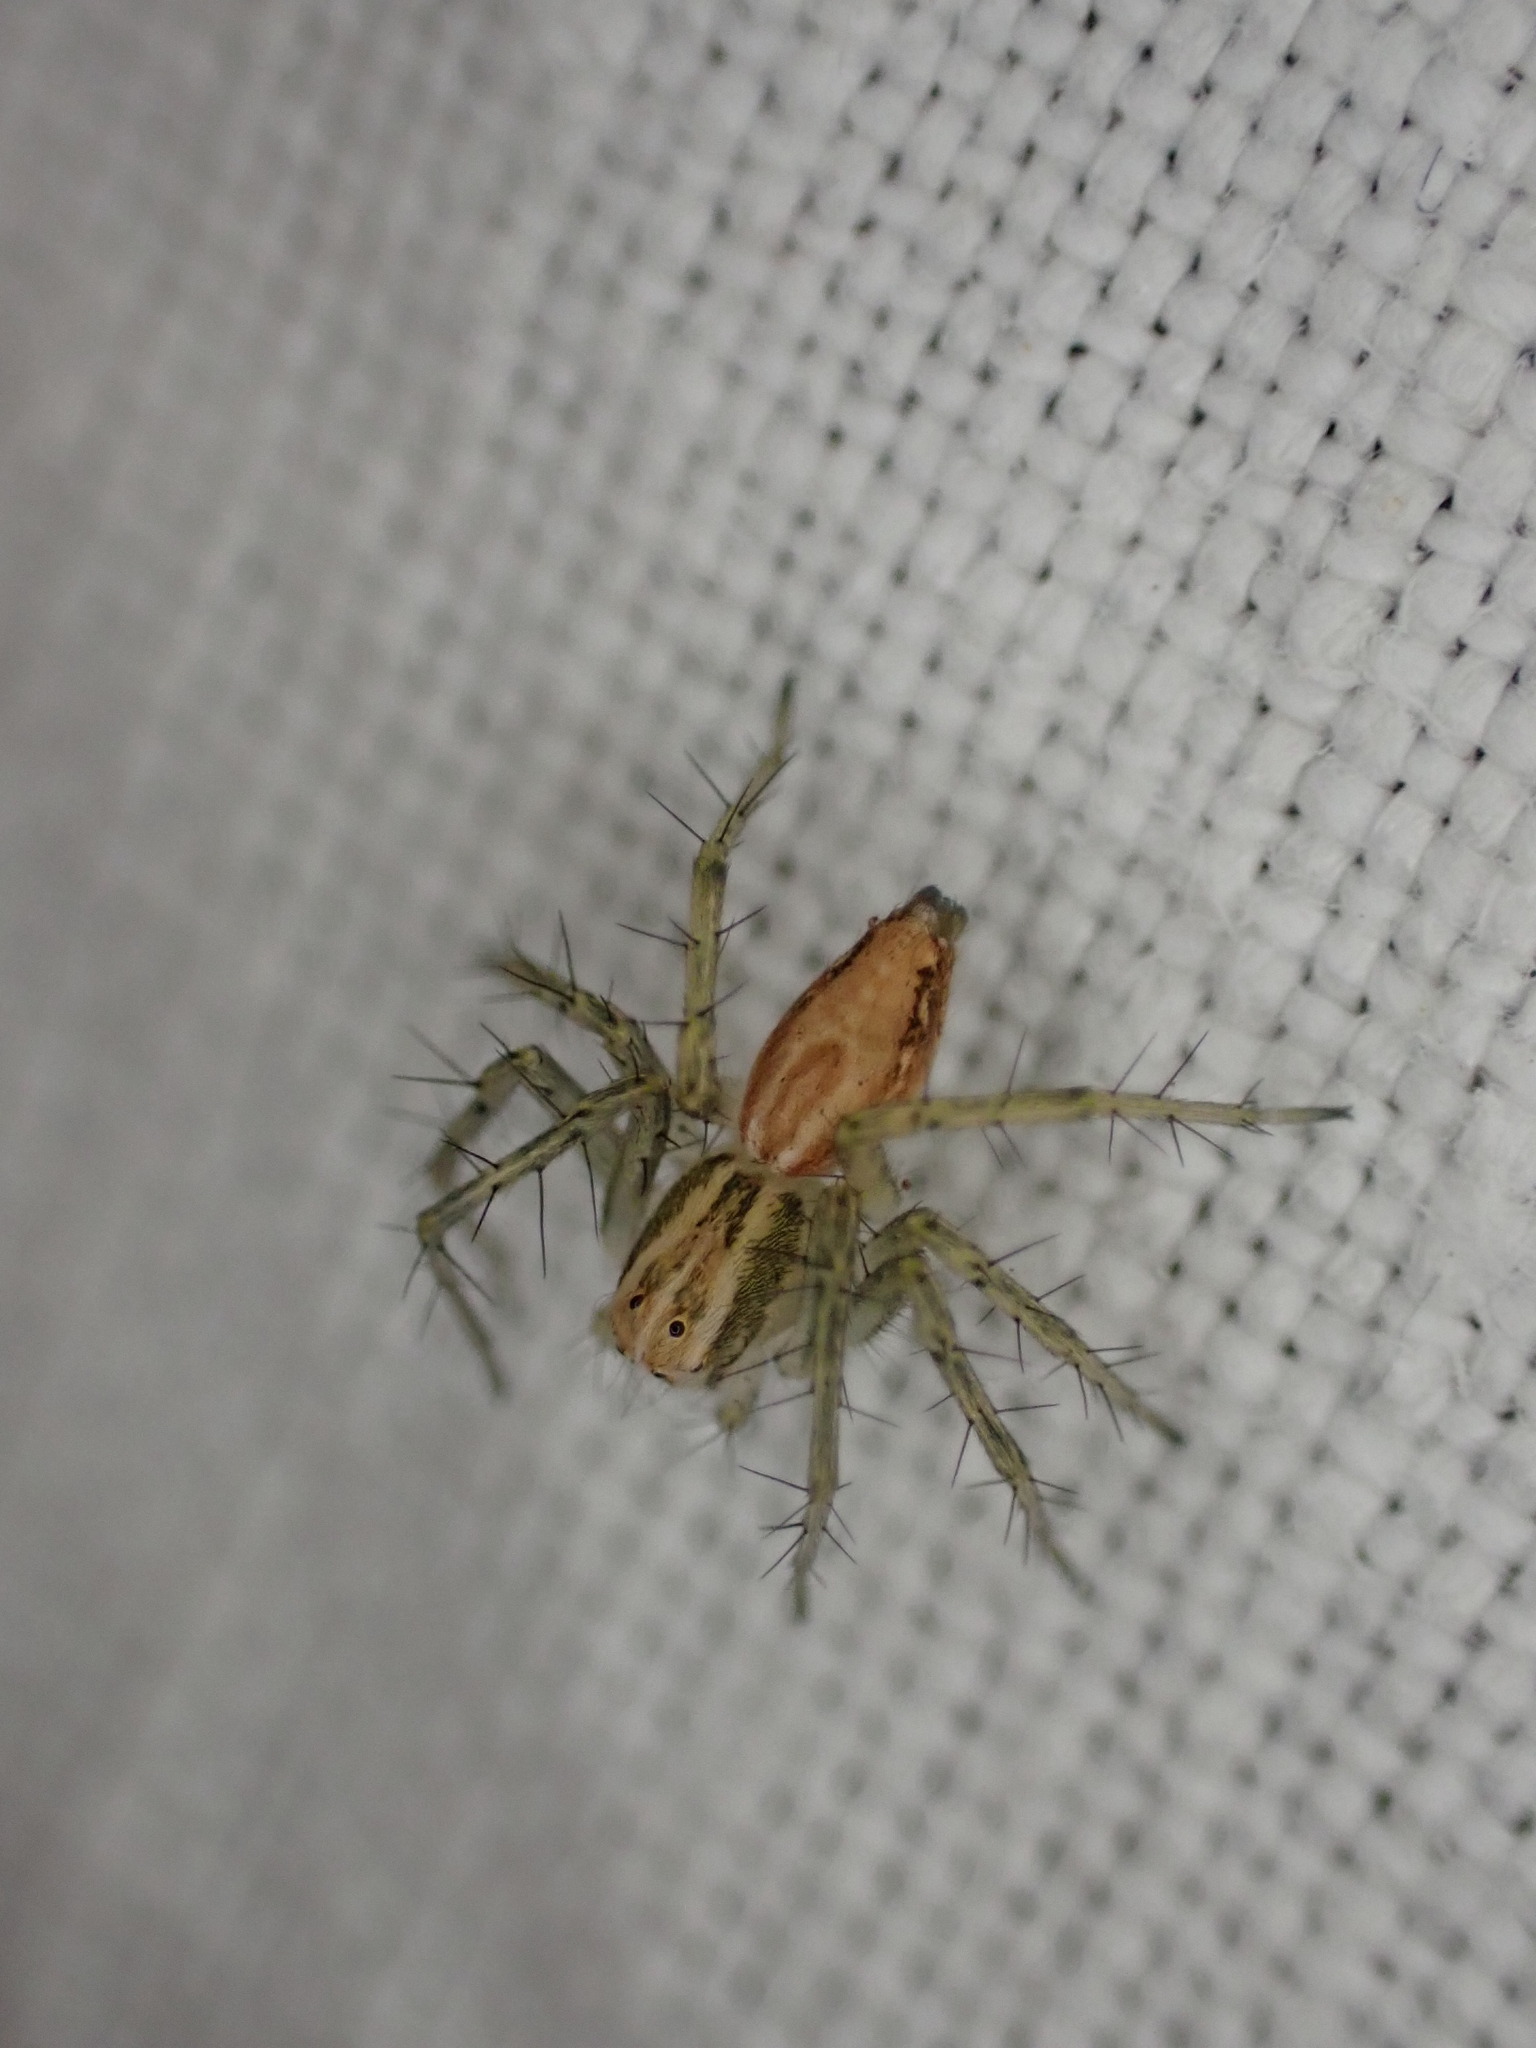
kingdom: Animalia
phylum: Arthropoda
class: Arachnida
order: Araneae
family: Oxyopidae
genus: Oxyopes
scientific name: Oxyopes
